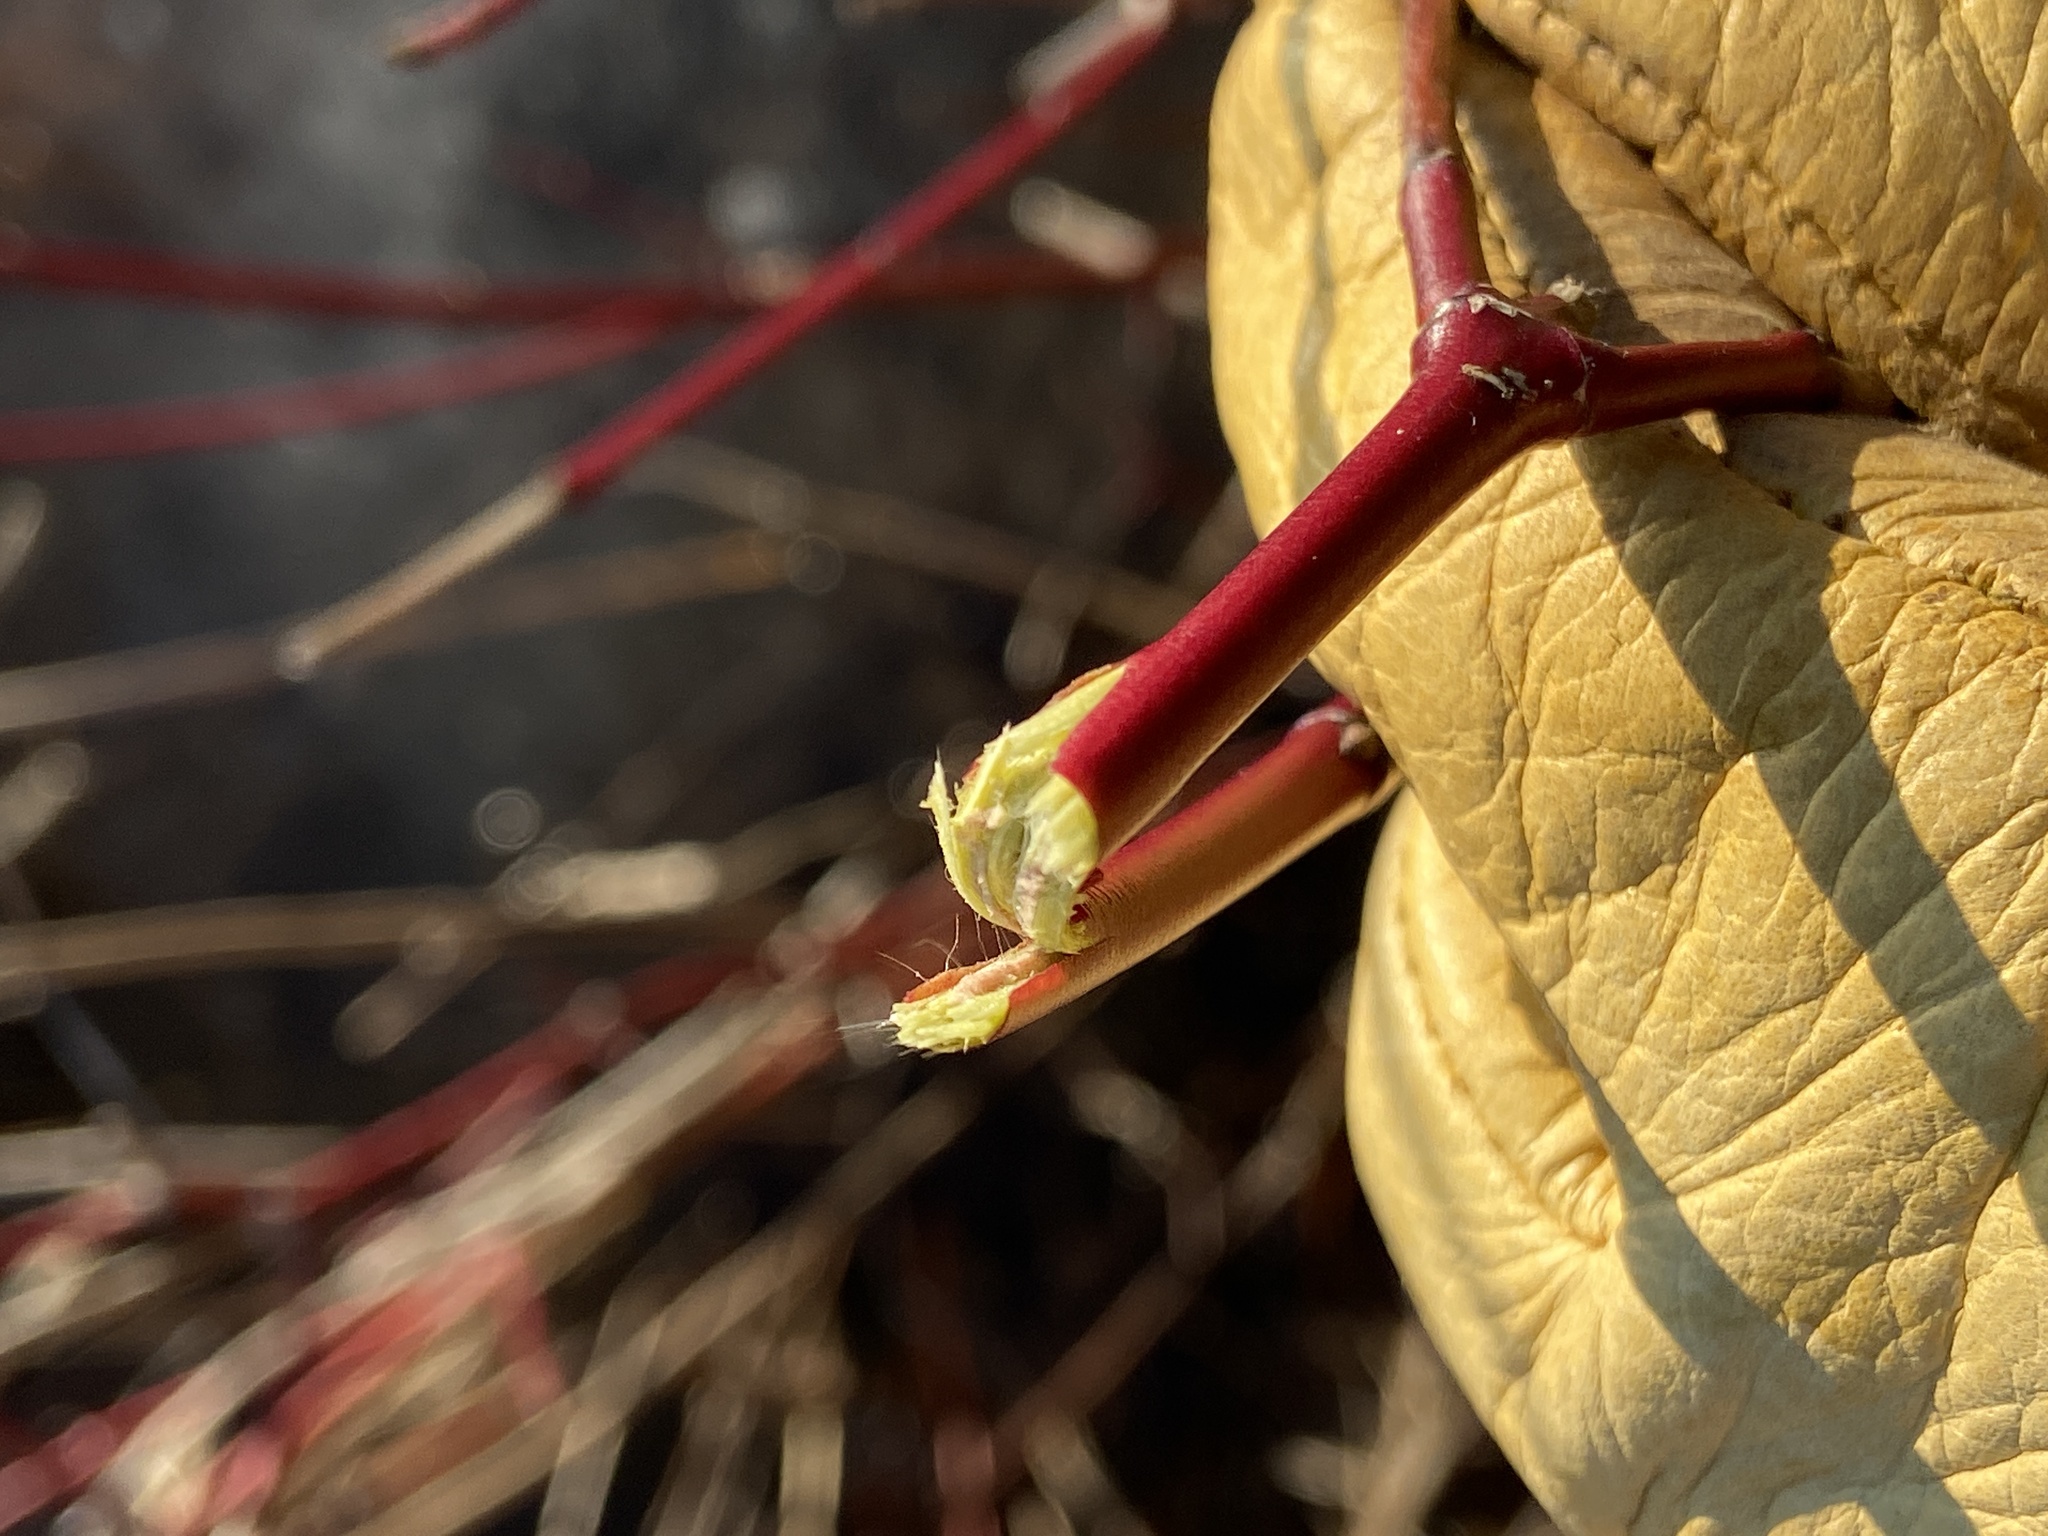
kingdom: Plantae
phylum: Tracheophyta
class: Magnoliopsida
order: Cornales
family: Cornaceae
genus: Cornus
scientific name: Cornus amomum
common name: Silky dogwood
